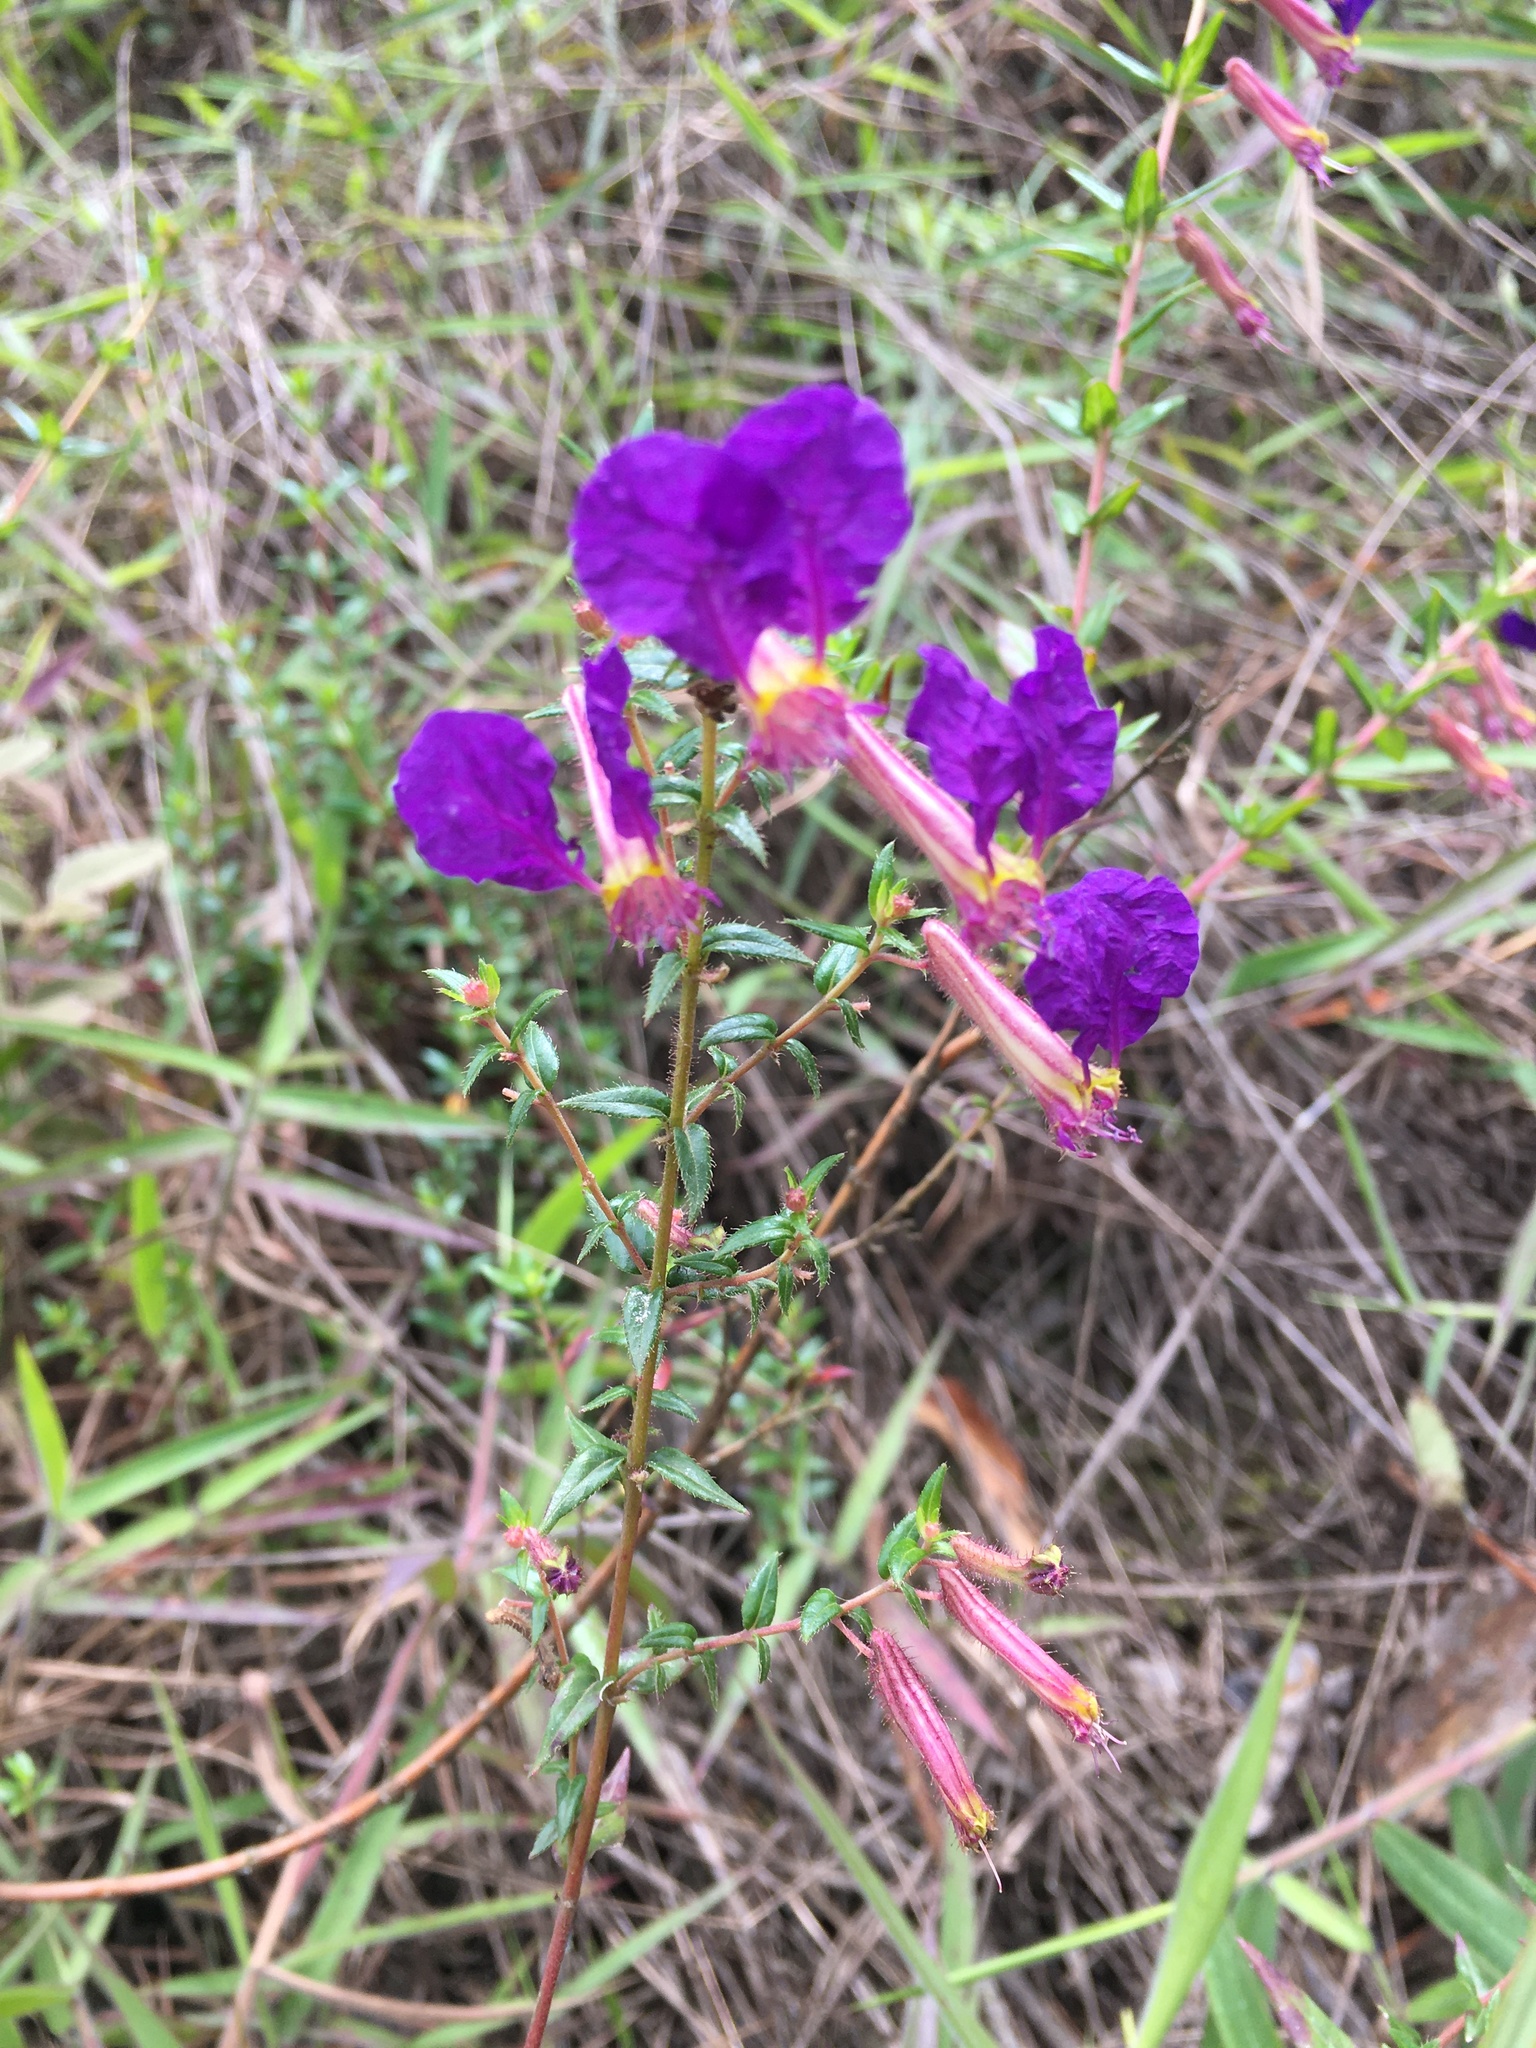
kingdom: Plantae
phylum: Tracheophyta
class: Magnoliopsida
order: Myrtales
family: Lythraceae
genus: Cuphea
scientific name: Cuphea dipetala
